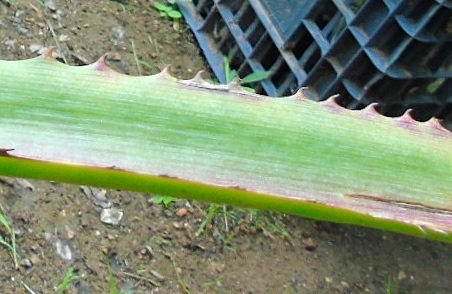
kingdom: Plantae
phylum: Tracheophyta
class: Liliopsida
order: Poales
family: Bromeliaceae
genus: Bromelia
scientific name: Bromelia karatas
